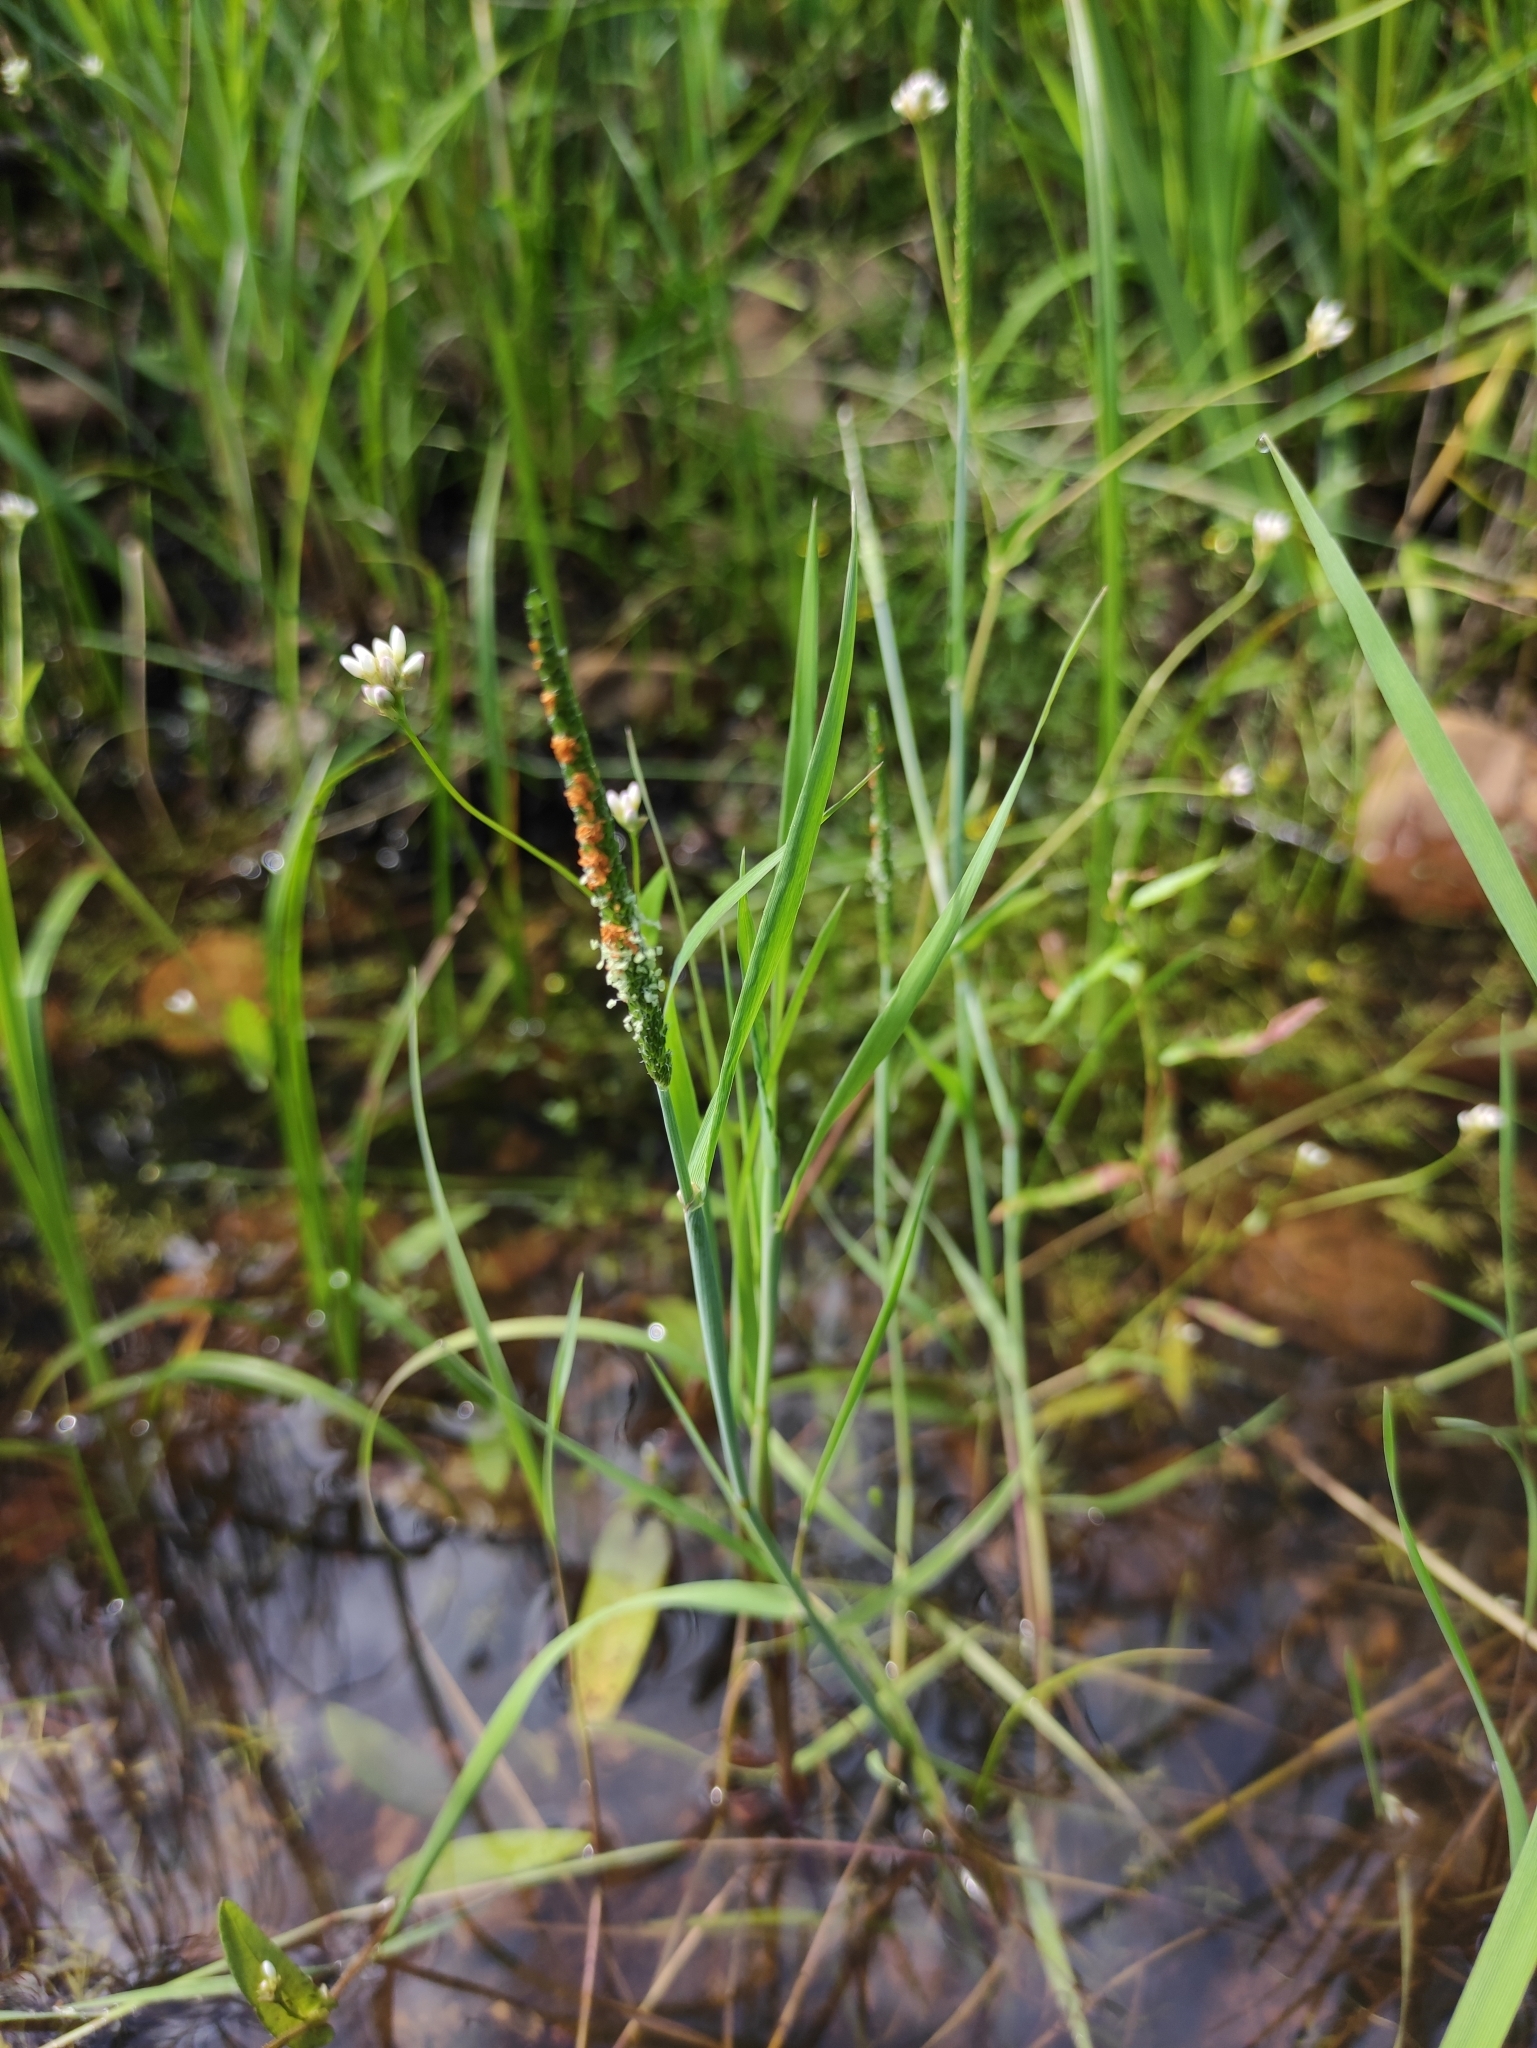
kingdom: Plantae
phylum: Tracheophyta
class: Liliopsida
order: Poales
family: Poaceae
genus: Alopecurus
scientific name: Alopecurus aequalis
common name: Orange foxtail
